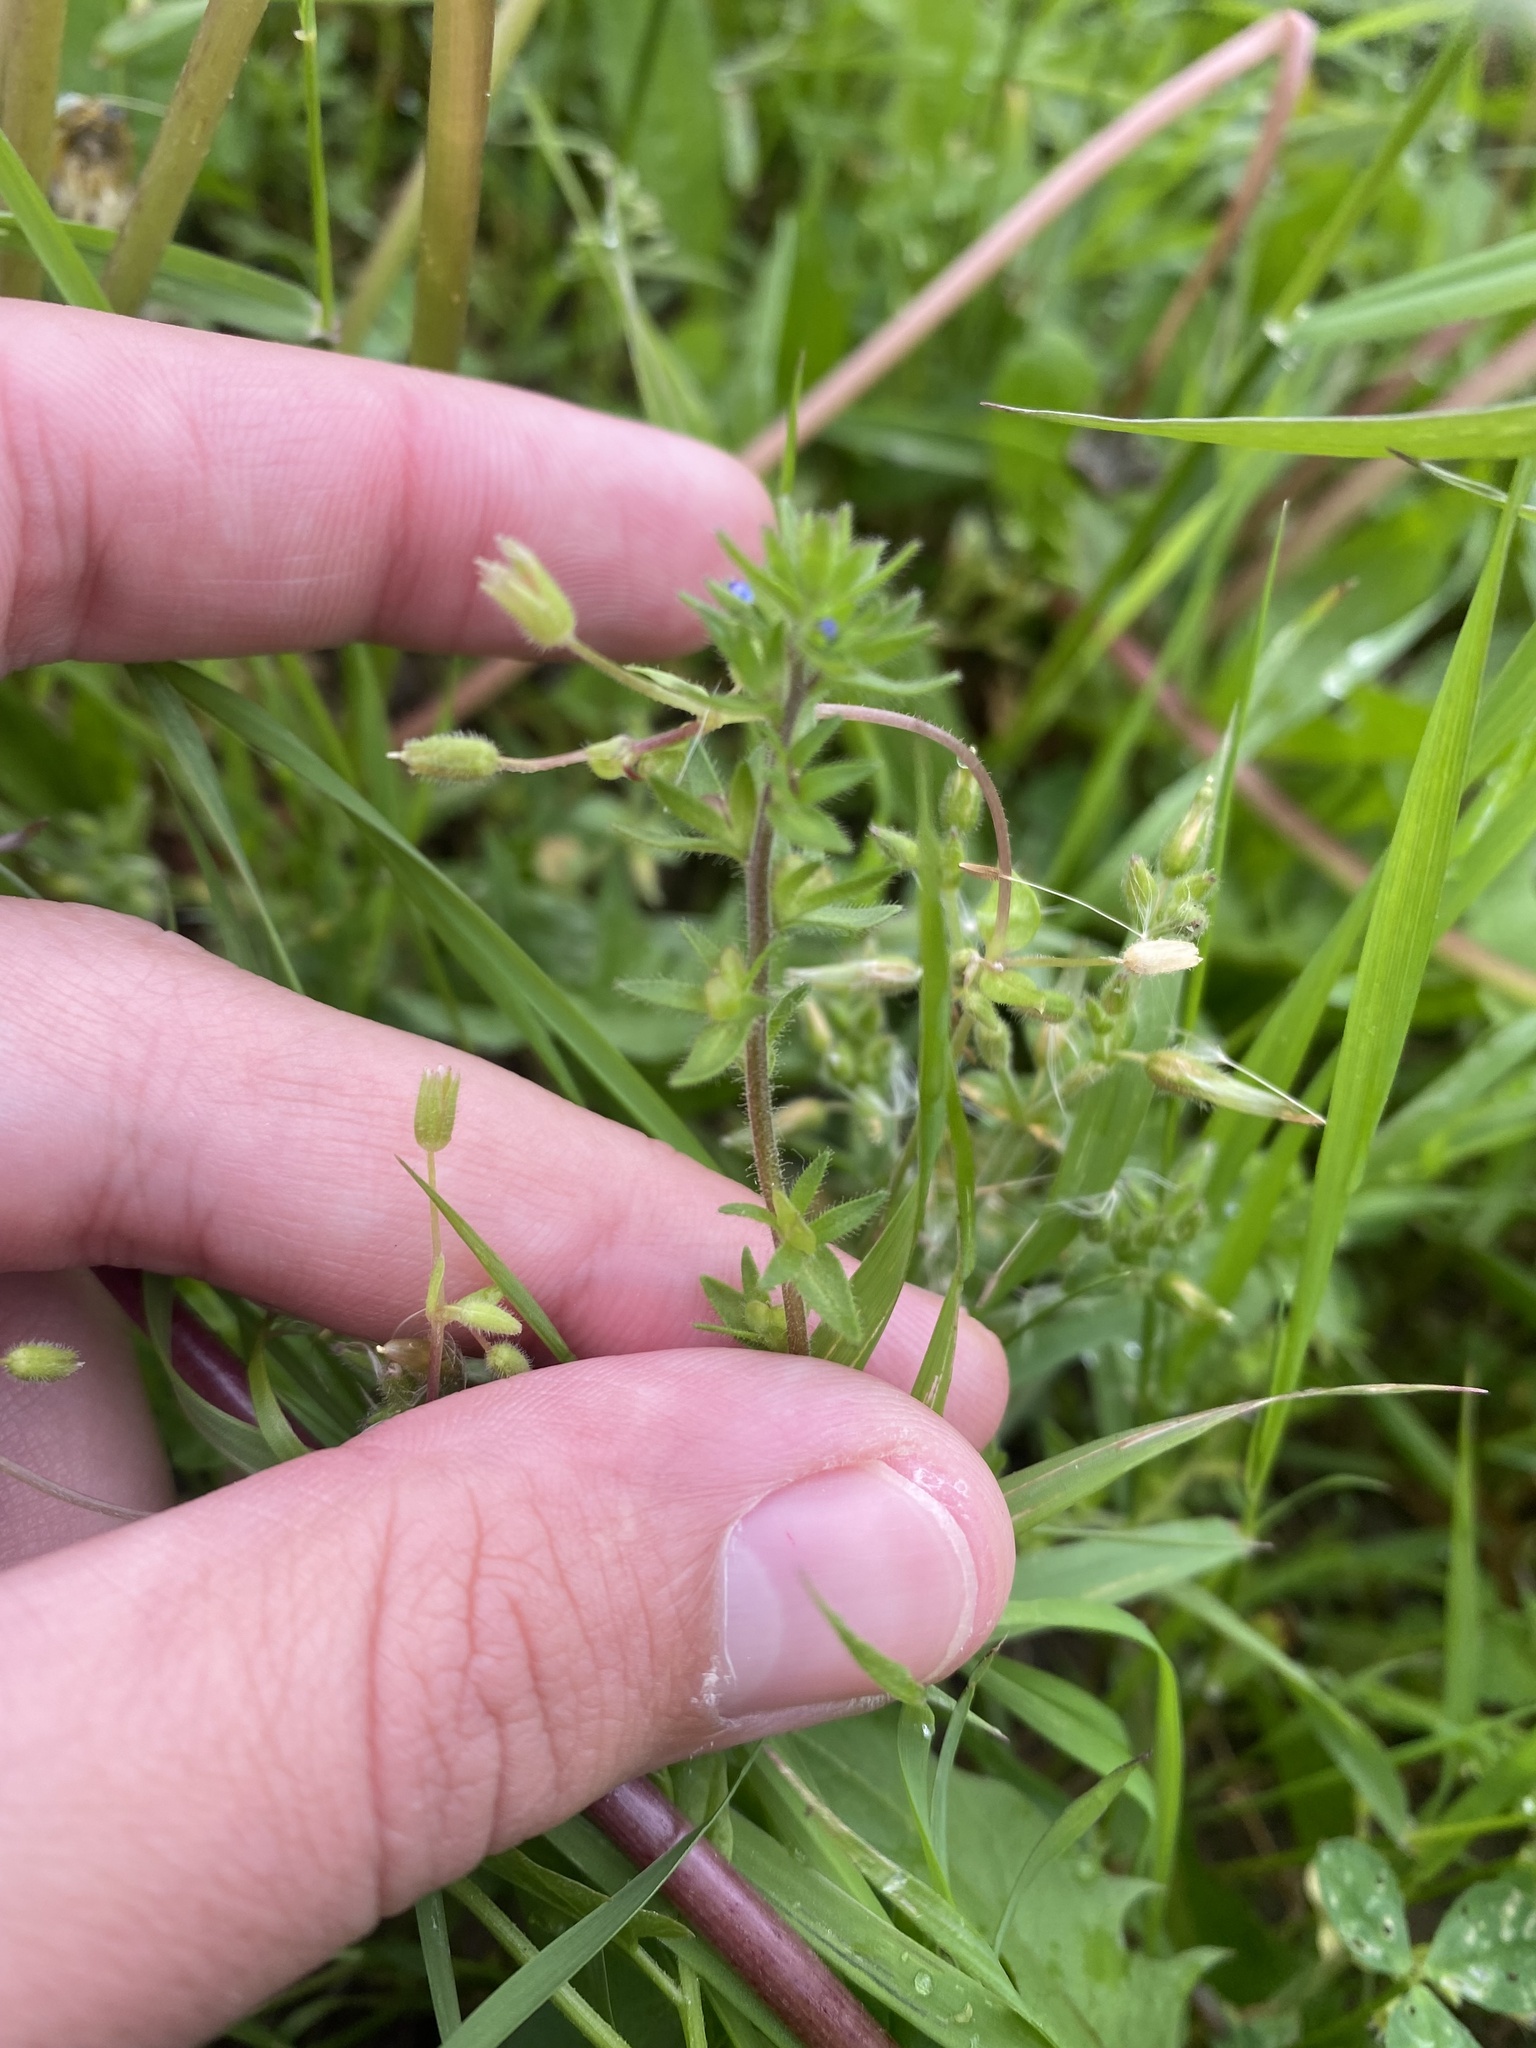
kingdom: Plantae
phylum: Tracheophyta
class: Magnoliopsida
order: Lamiales
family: Plantaginaceae
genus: Veronica
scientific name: Veronica arvensis
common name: Corn speedwell
